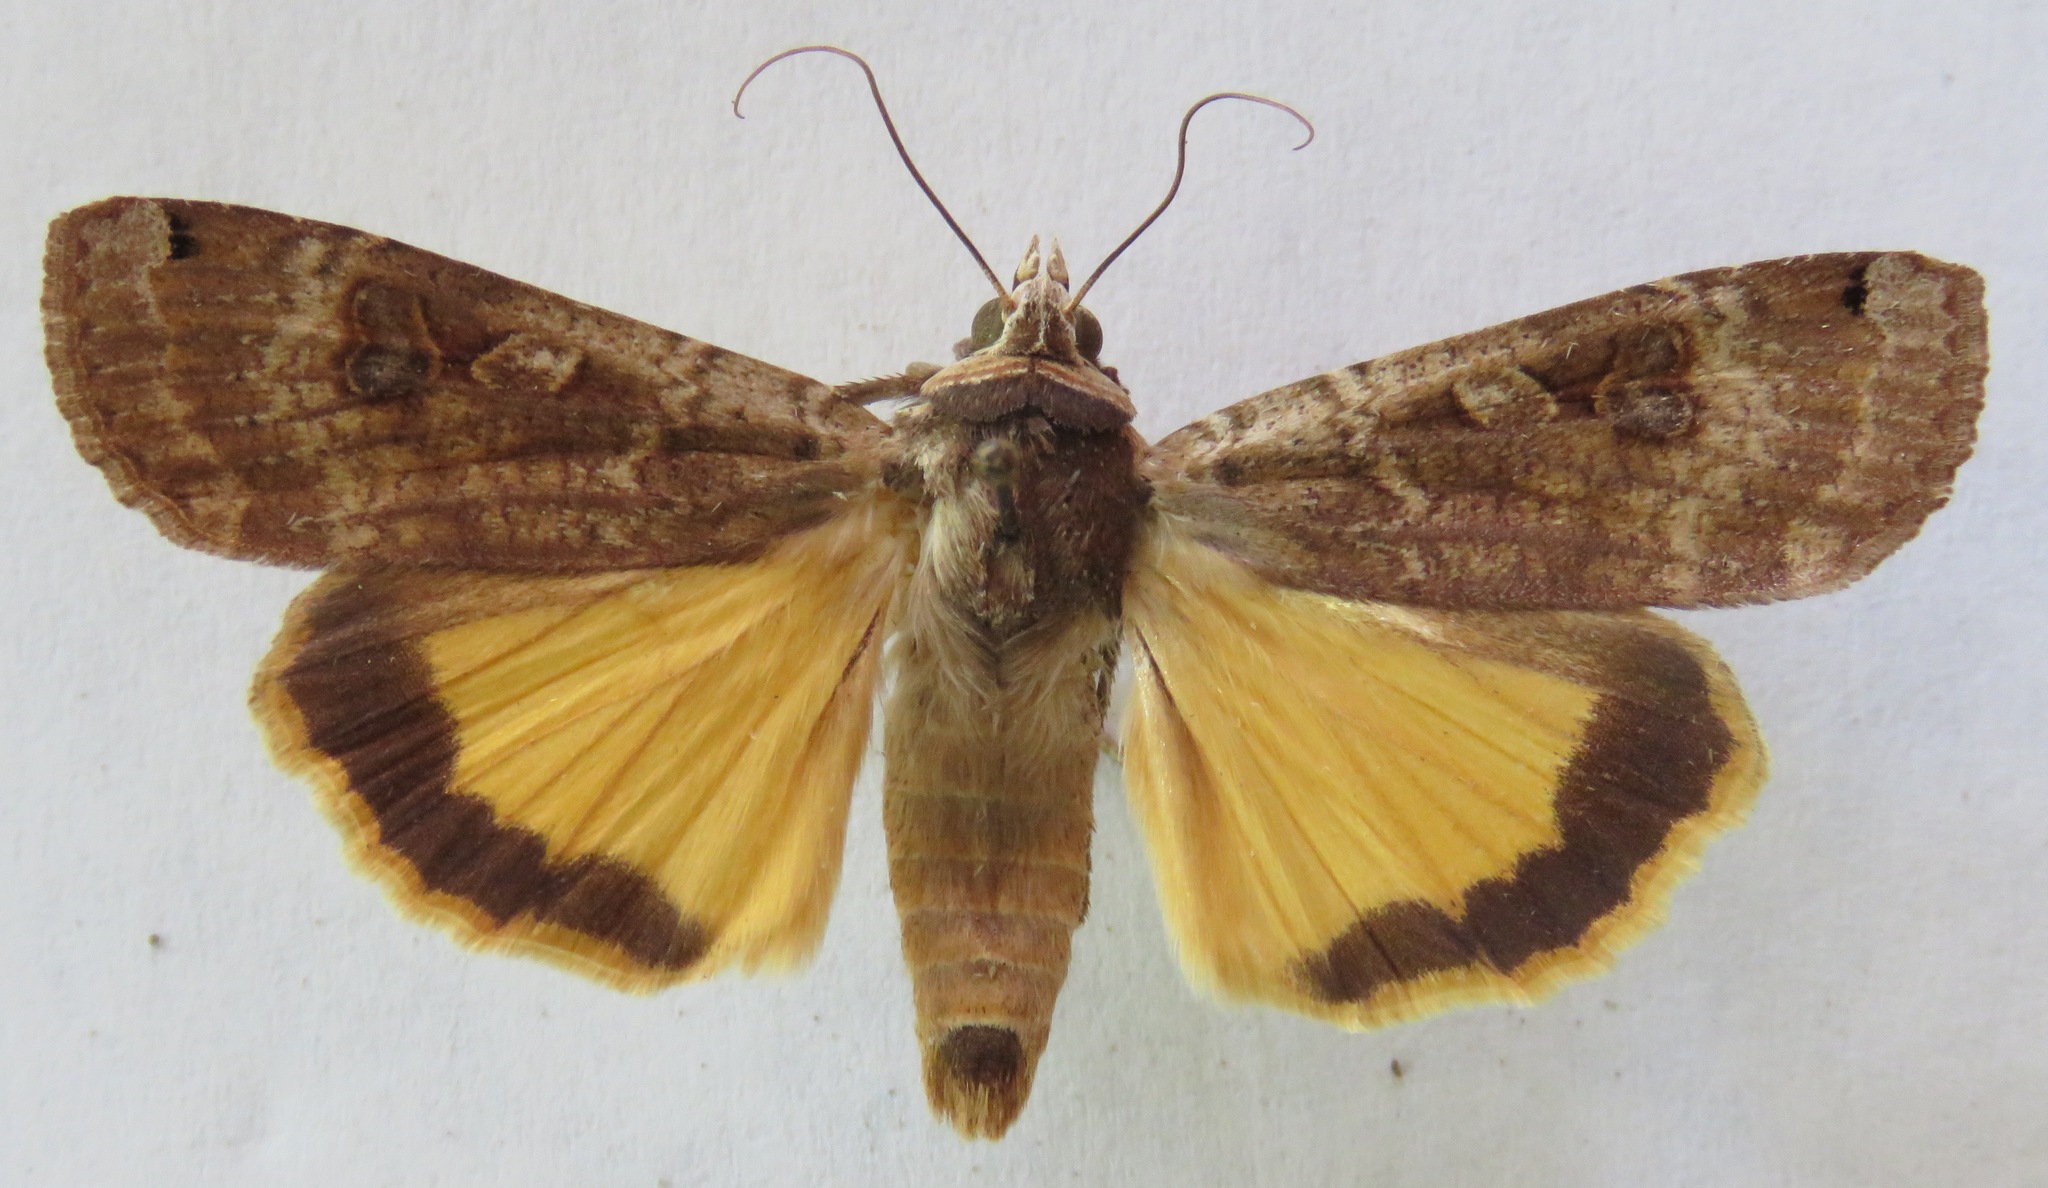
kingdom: Animalia
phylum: Arthropoda
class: Insecta
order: Lepidoptera
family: Noctuidae
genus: Noctua
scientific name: Noctua pronuba
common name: Large yellow underwing
